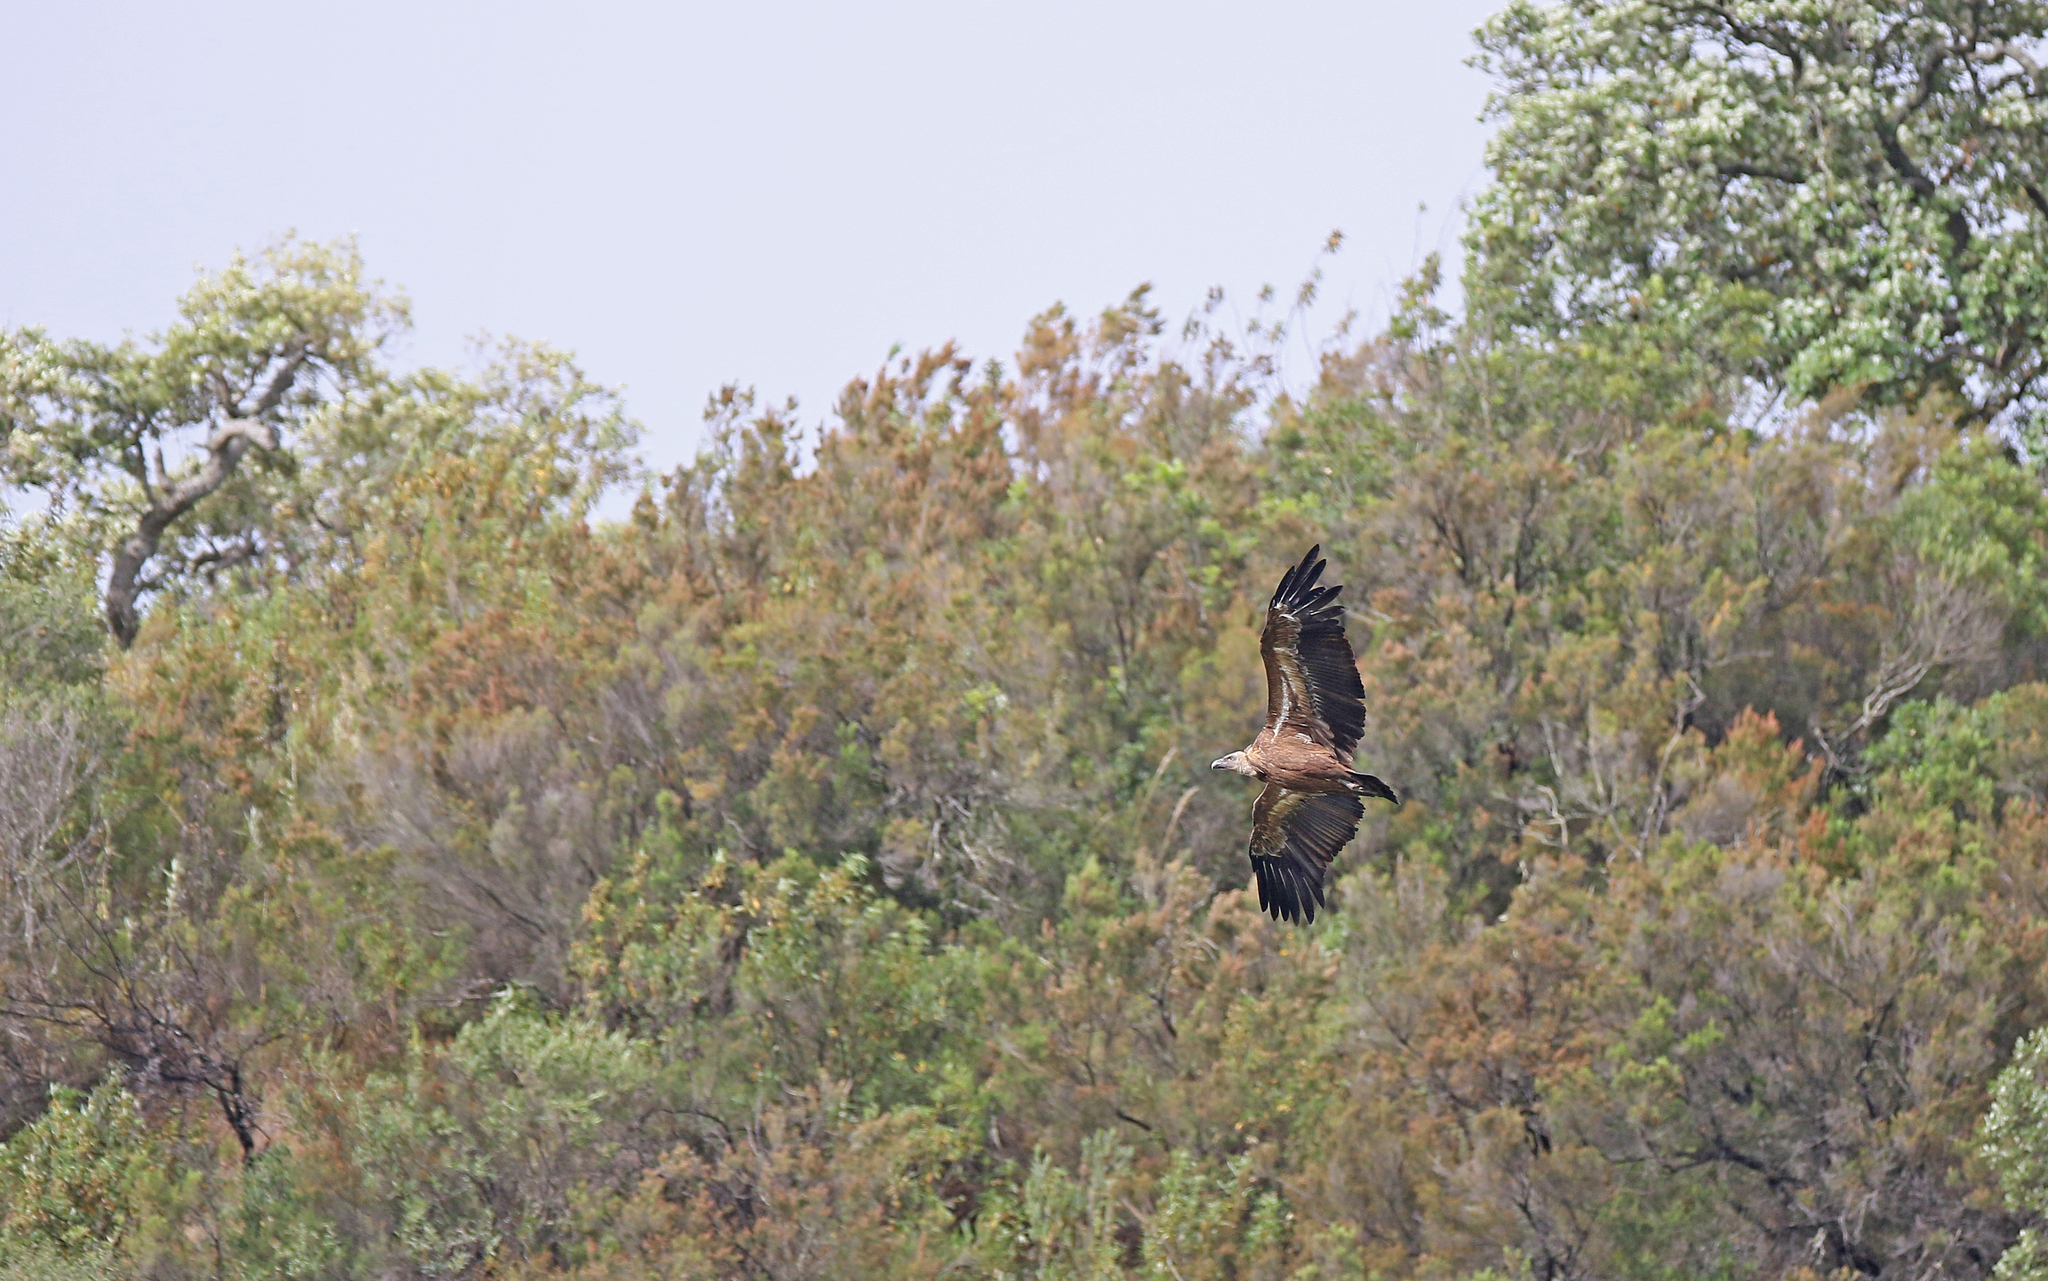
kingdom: Animalia
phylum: Chordata
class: Aves
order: Accipitriformes
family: Accipitridae
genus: Gyps
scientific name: Gyps fulvus
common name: Griffon vulture
